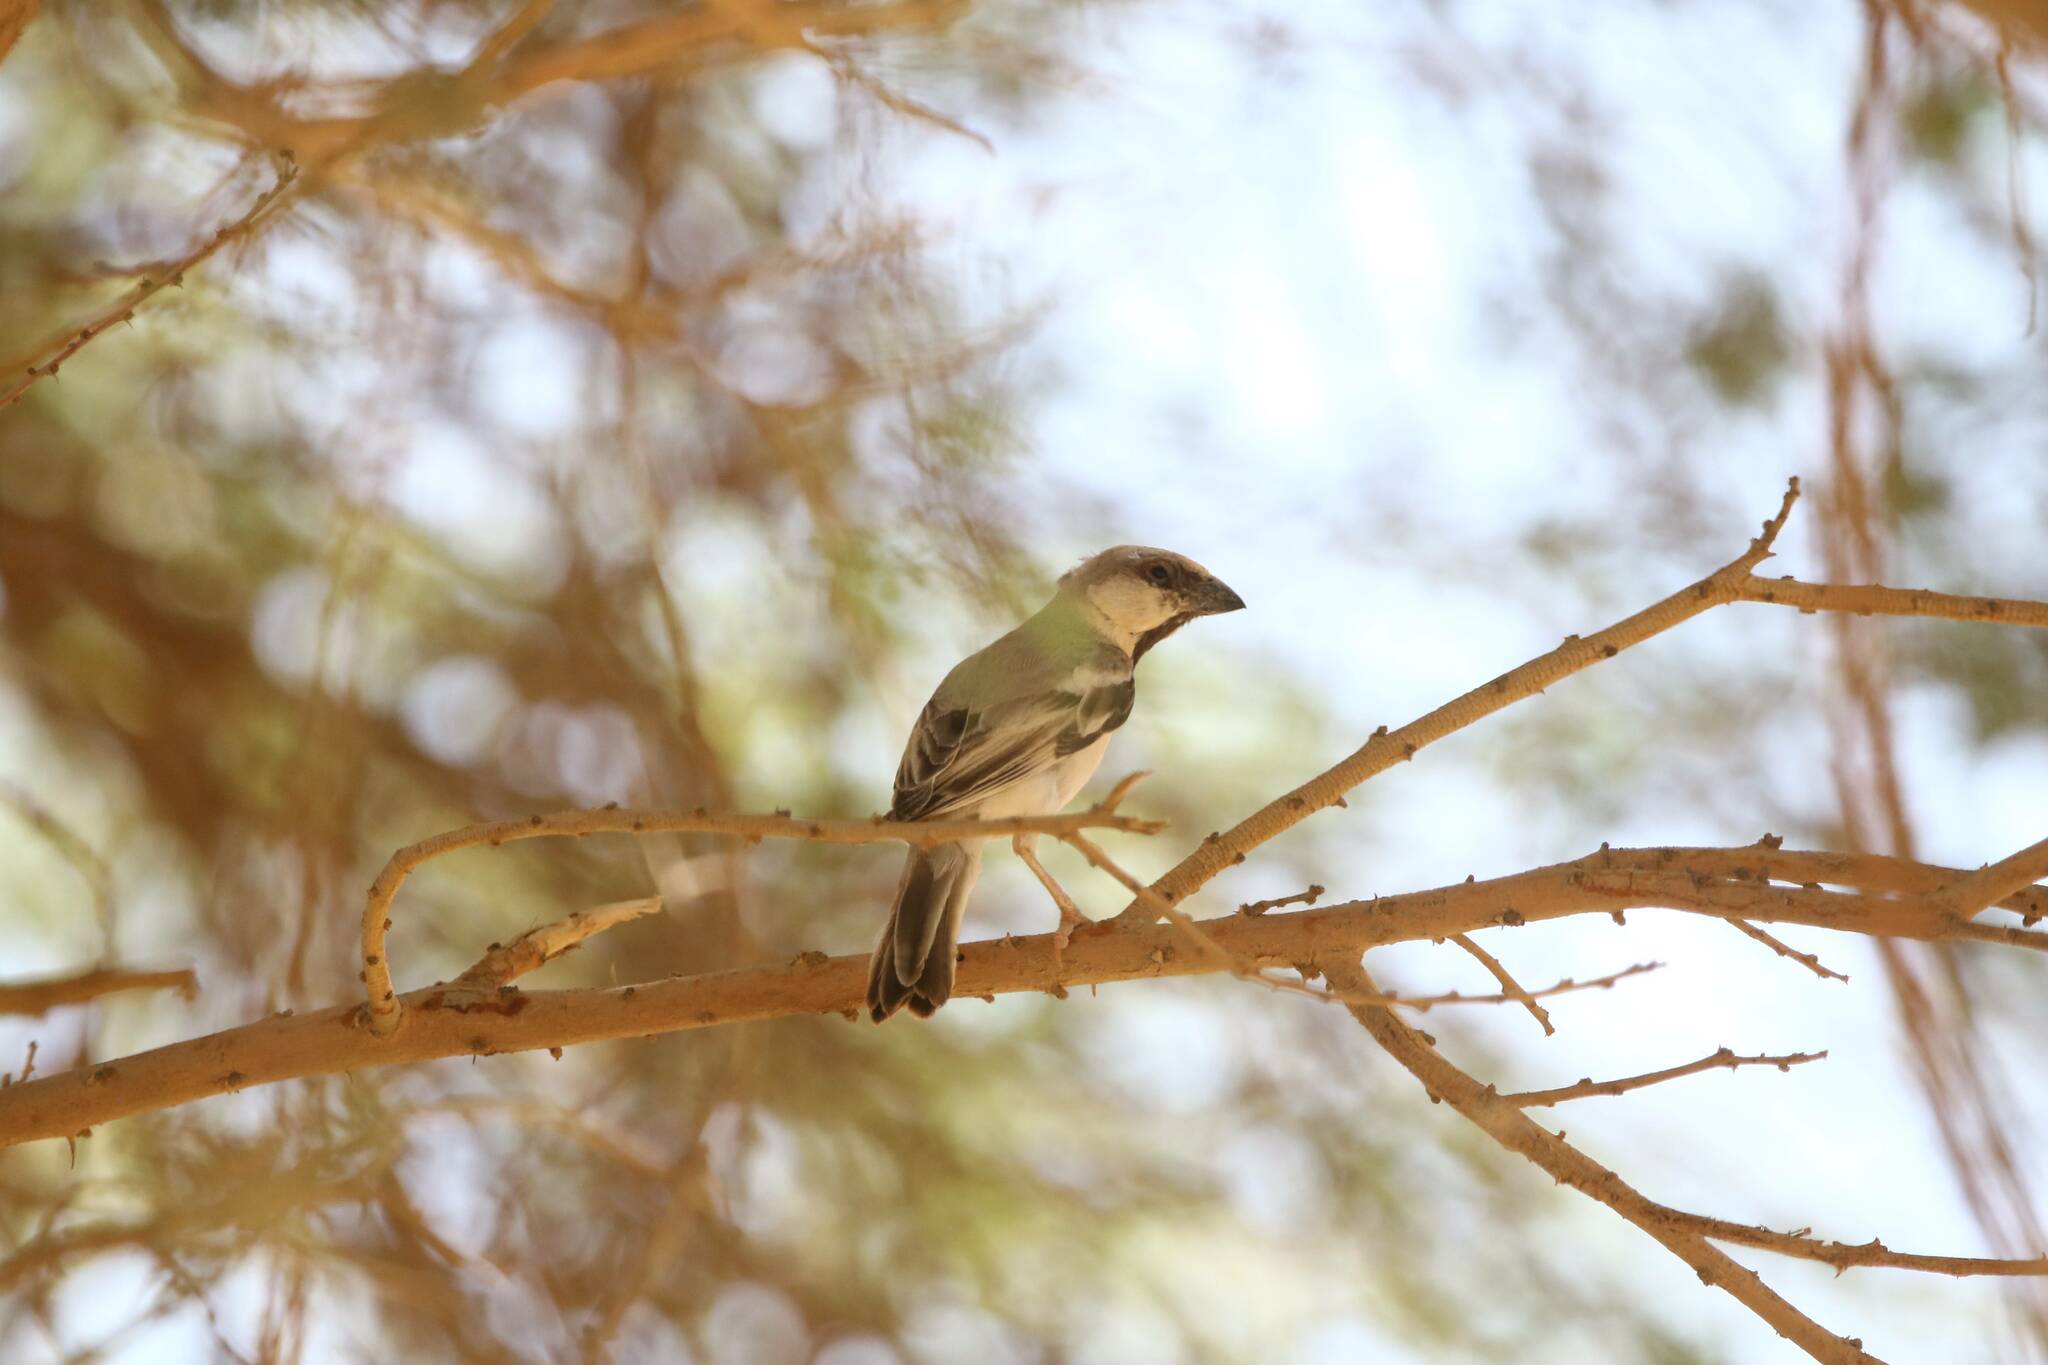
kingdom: Animalia
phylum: Chordata
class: Aves
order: Passeriformes
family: Passeridae
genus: Passer
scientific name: Passer simplex
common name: Desert sparrow
